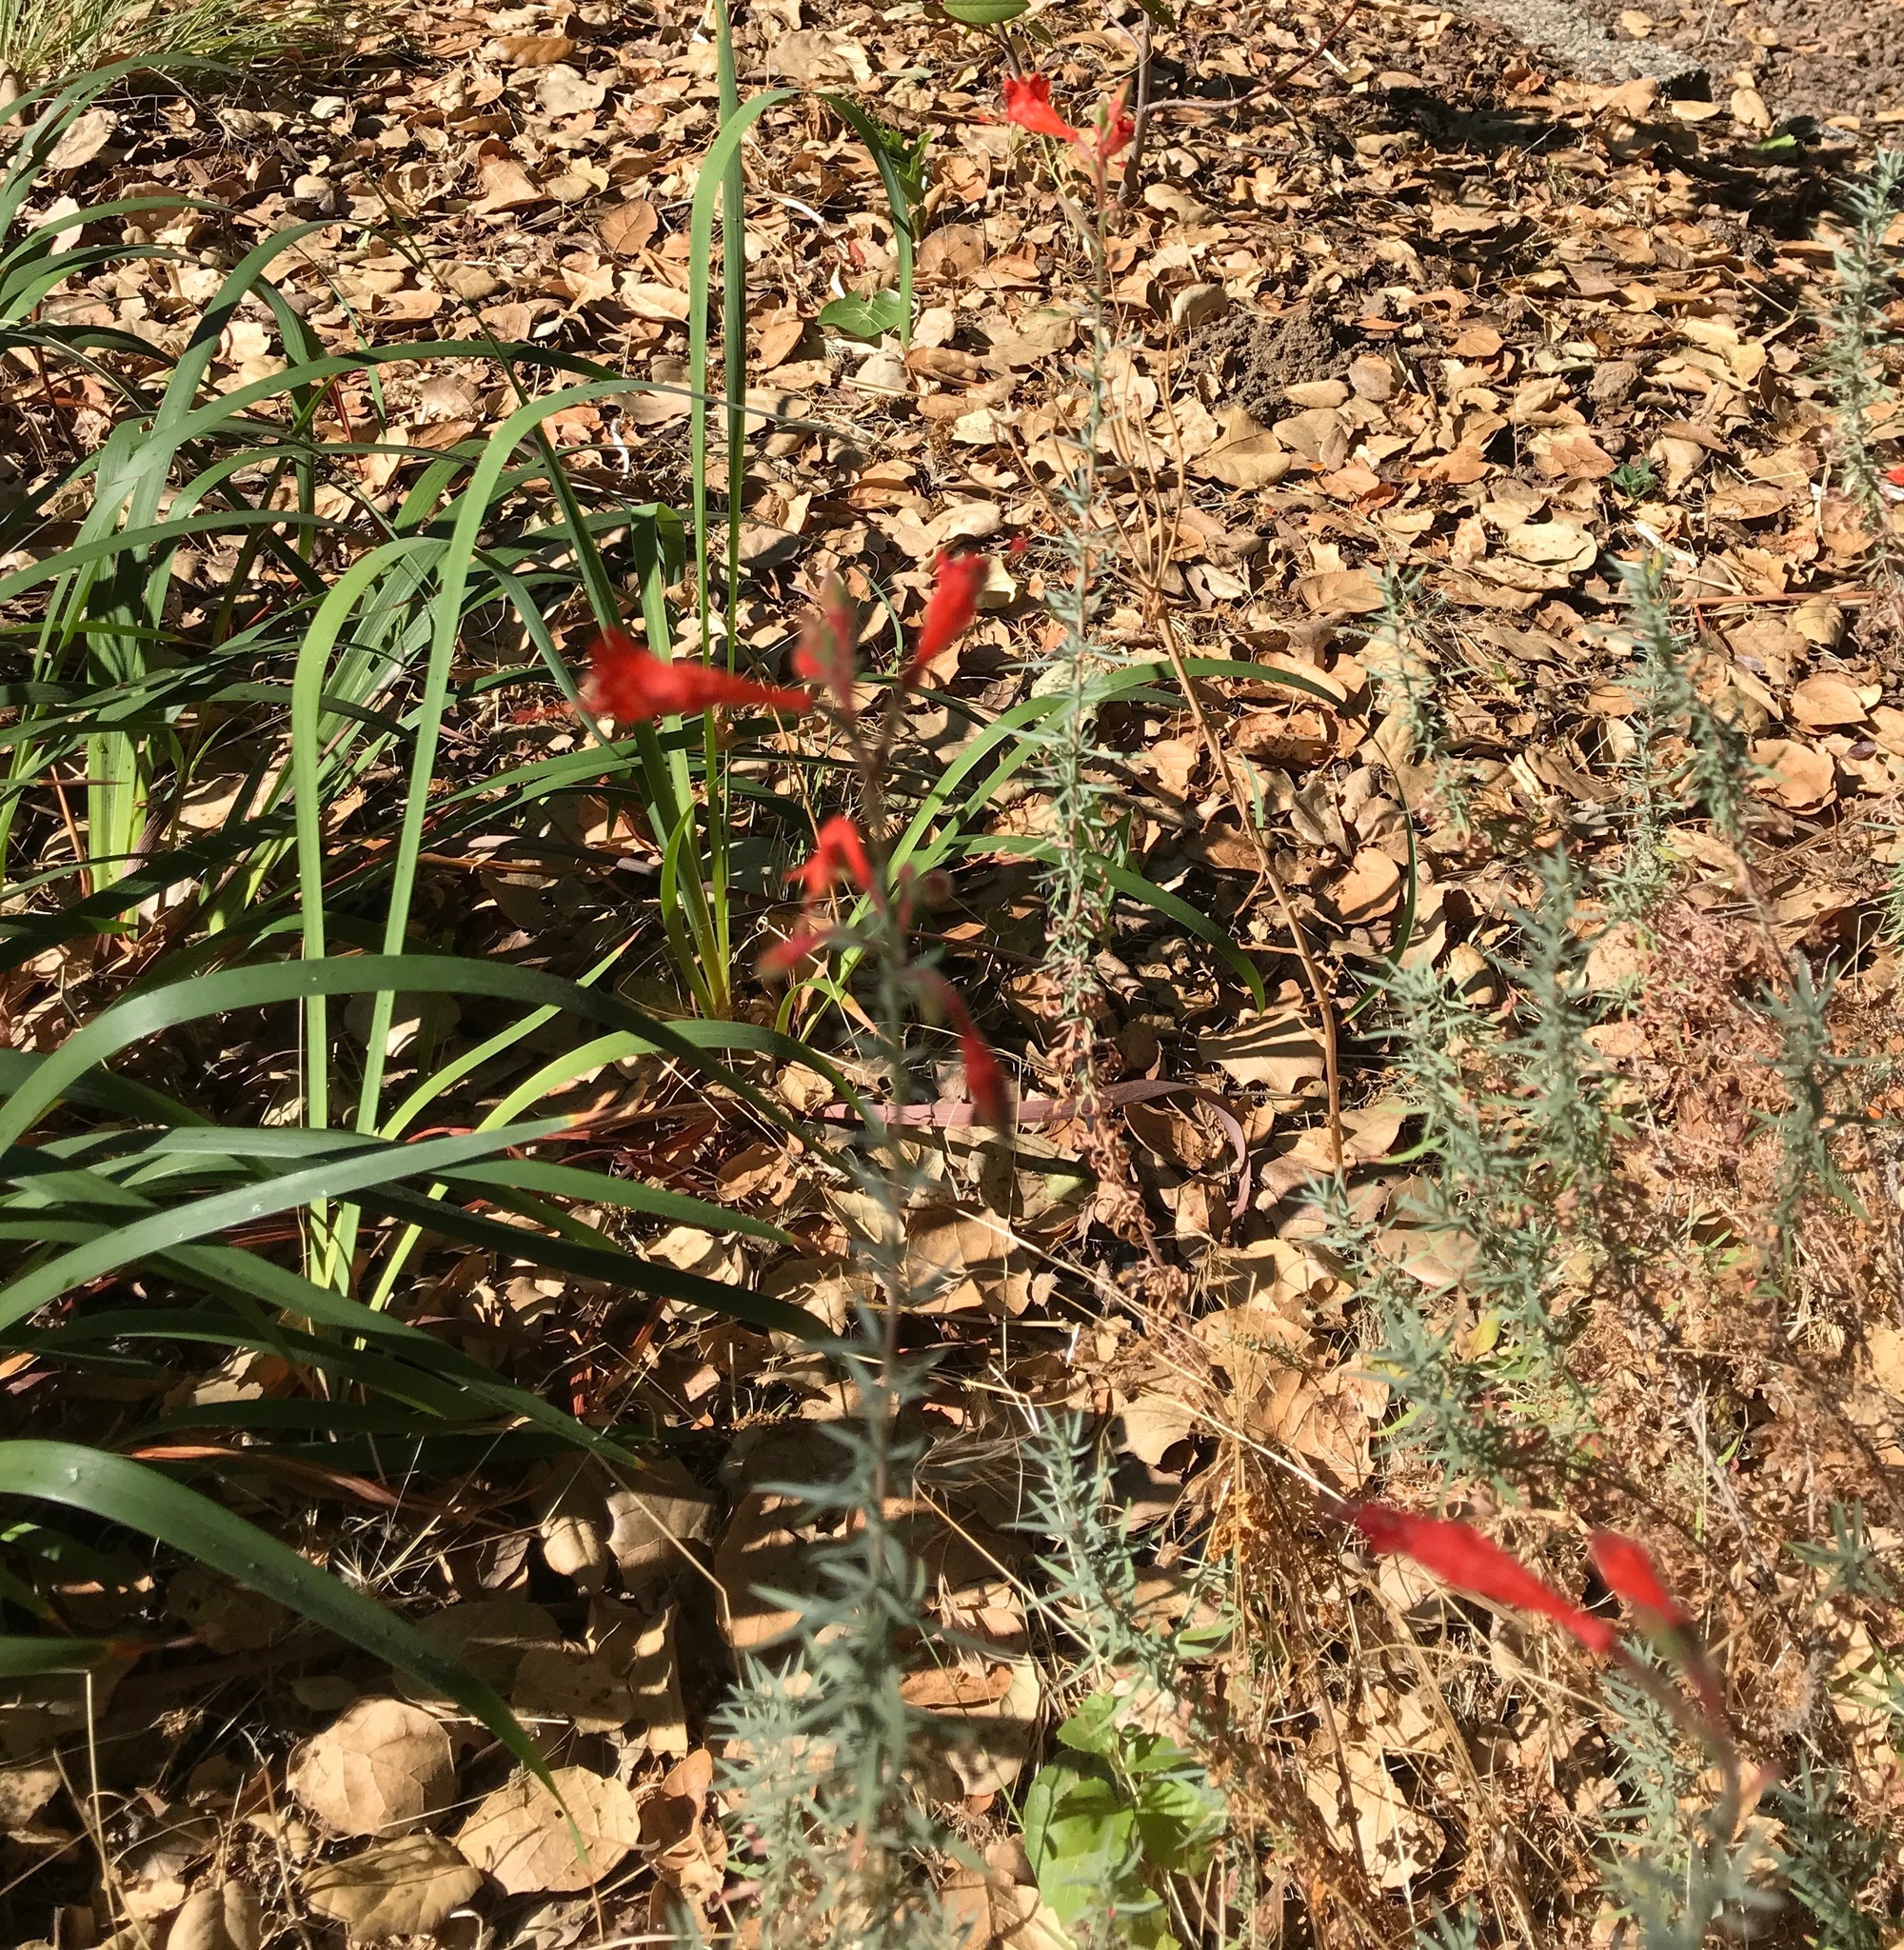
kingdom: Plantae
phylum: Tracheophyta
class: Magnoliopsida
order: Myrtales
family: Onagraceae
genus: Epilobium
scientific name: Epilobium canum
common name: California-fuchsia
